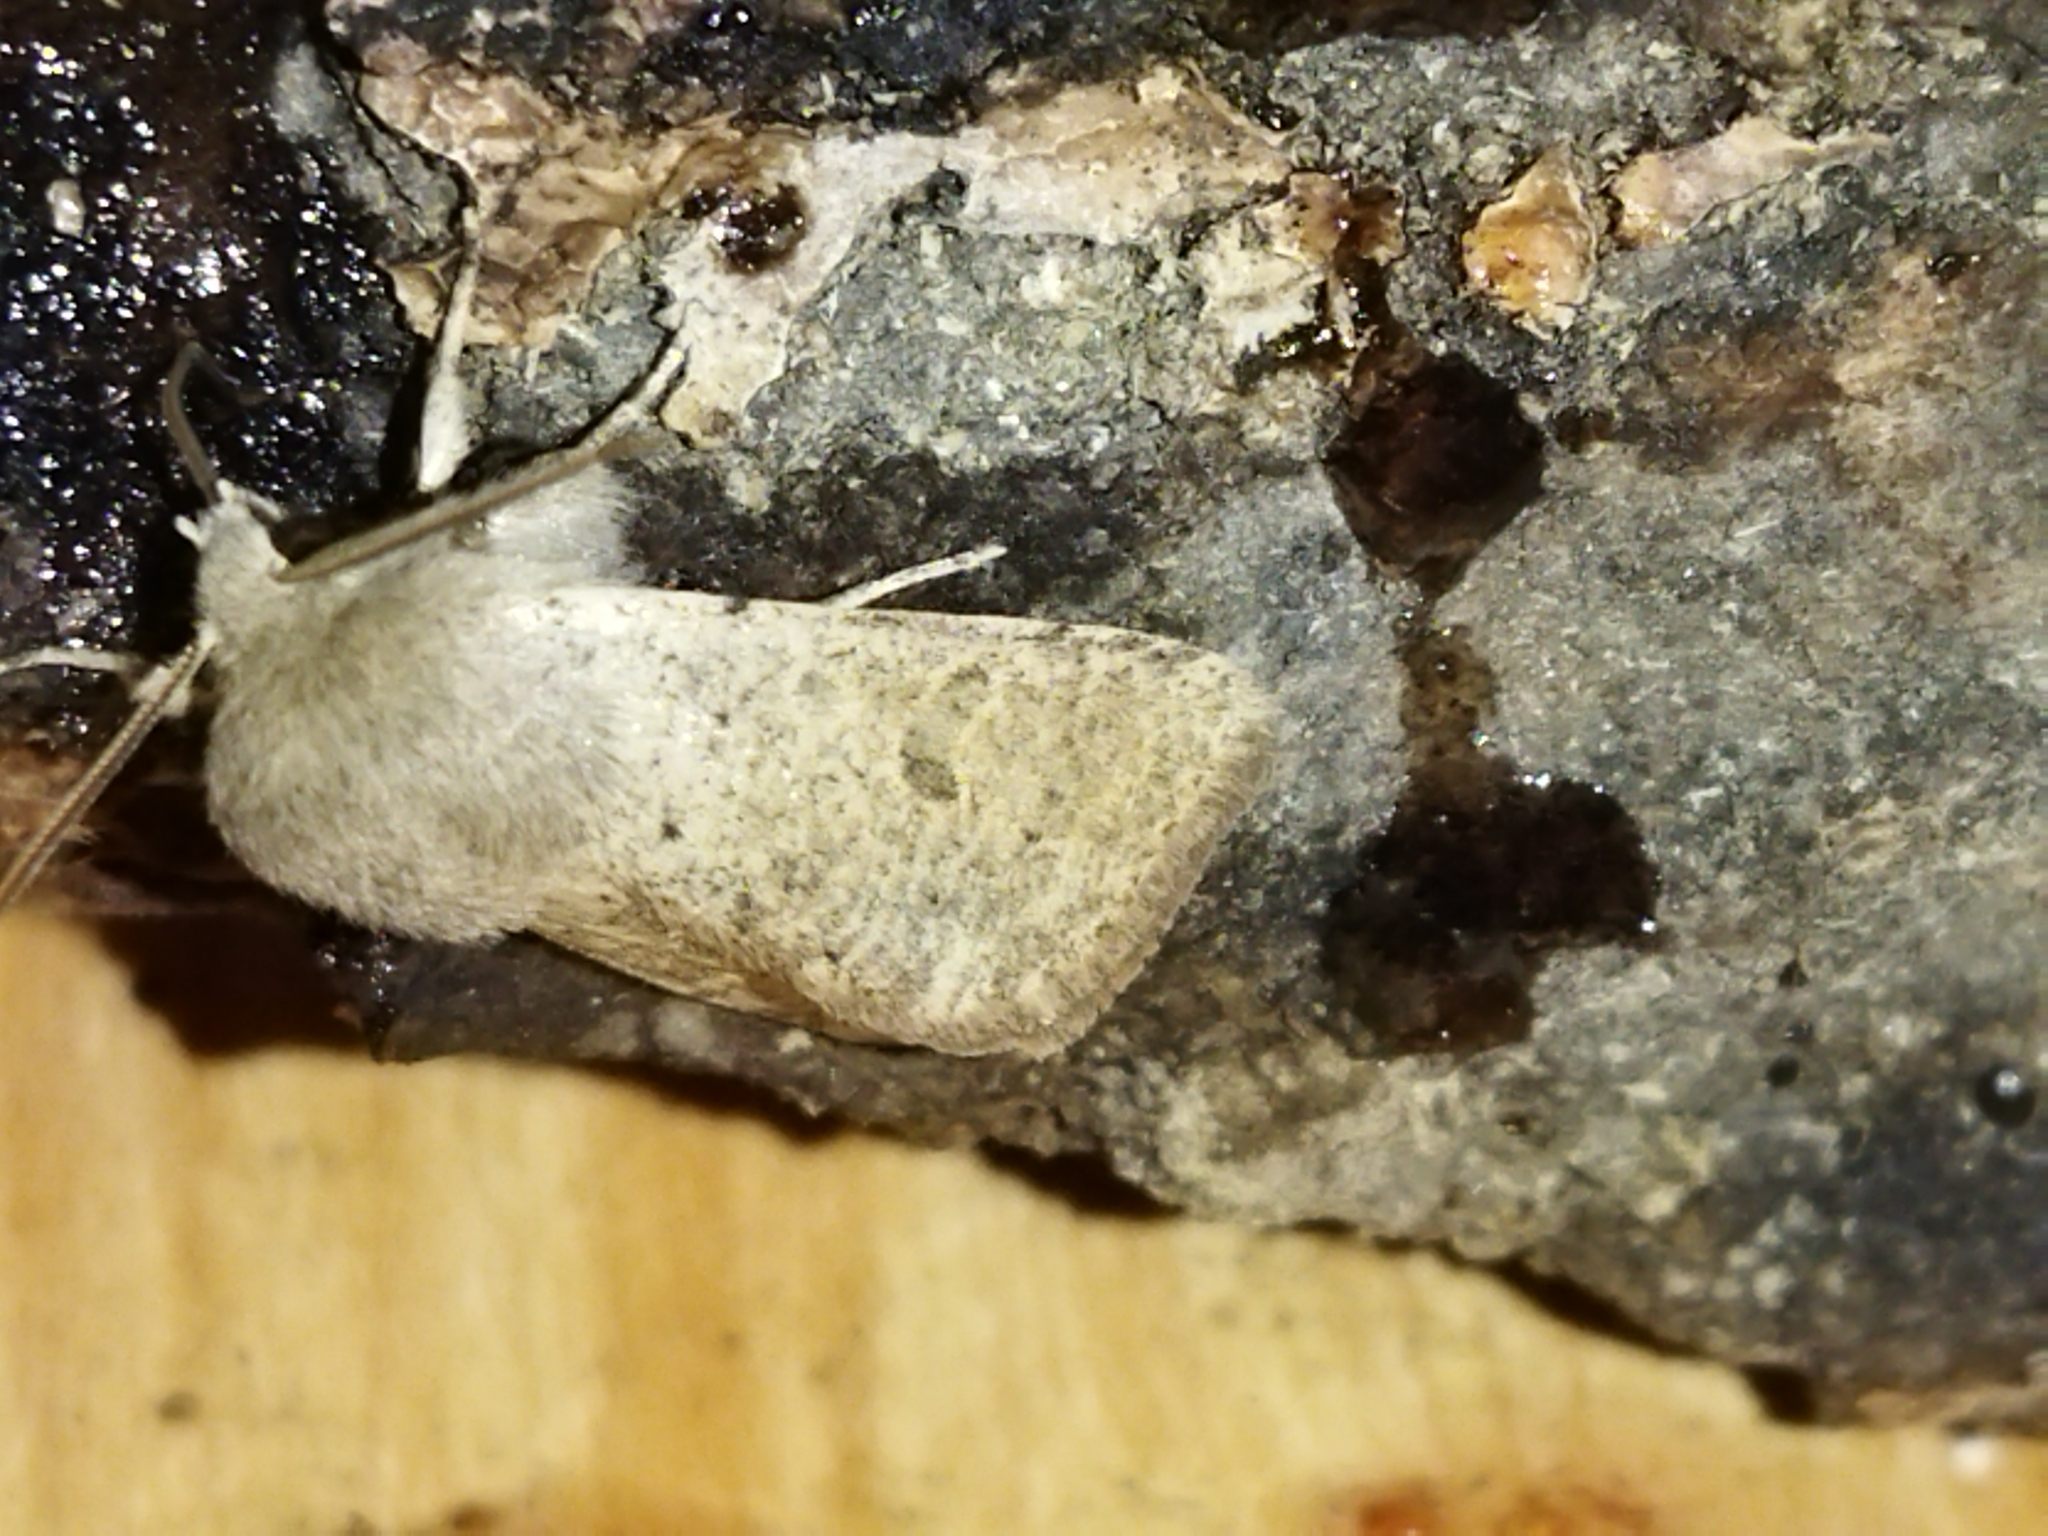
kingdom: Animalia
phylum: Arthropoda
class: Insecta
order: Lepidoptera
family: Noctuidae
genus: Orthosia
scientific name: Orthosia cruda
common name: Small quaker
